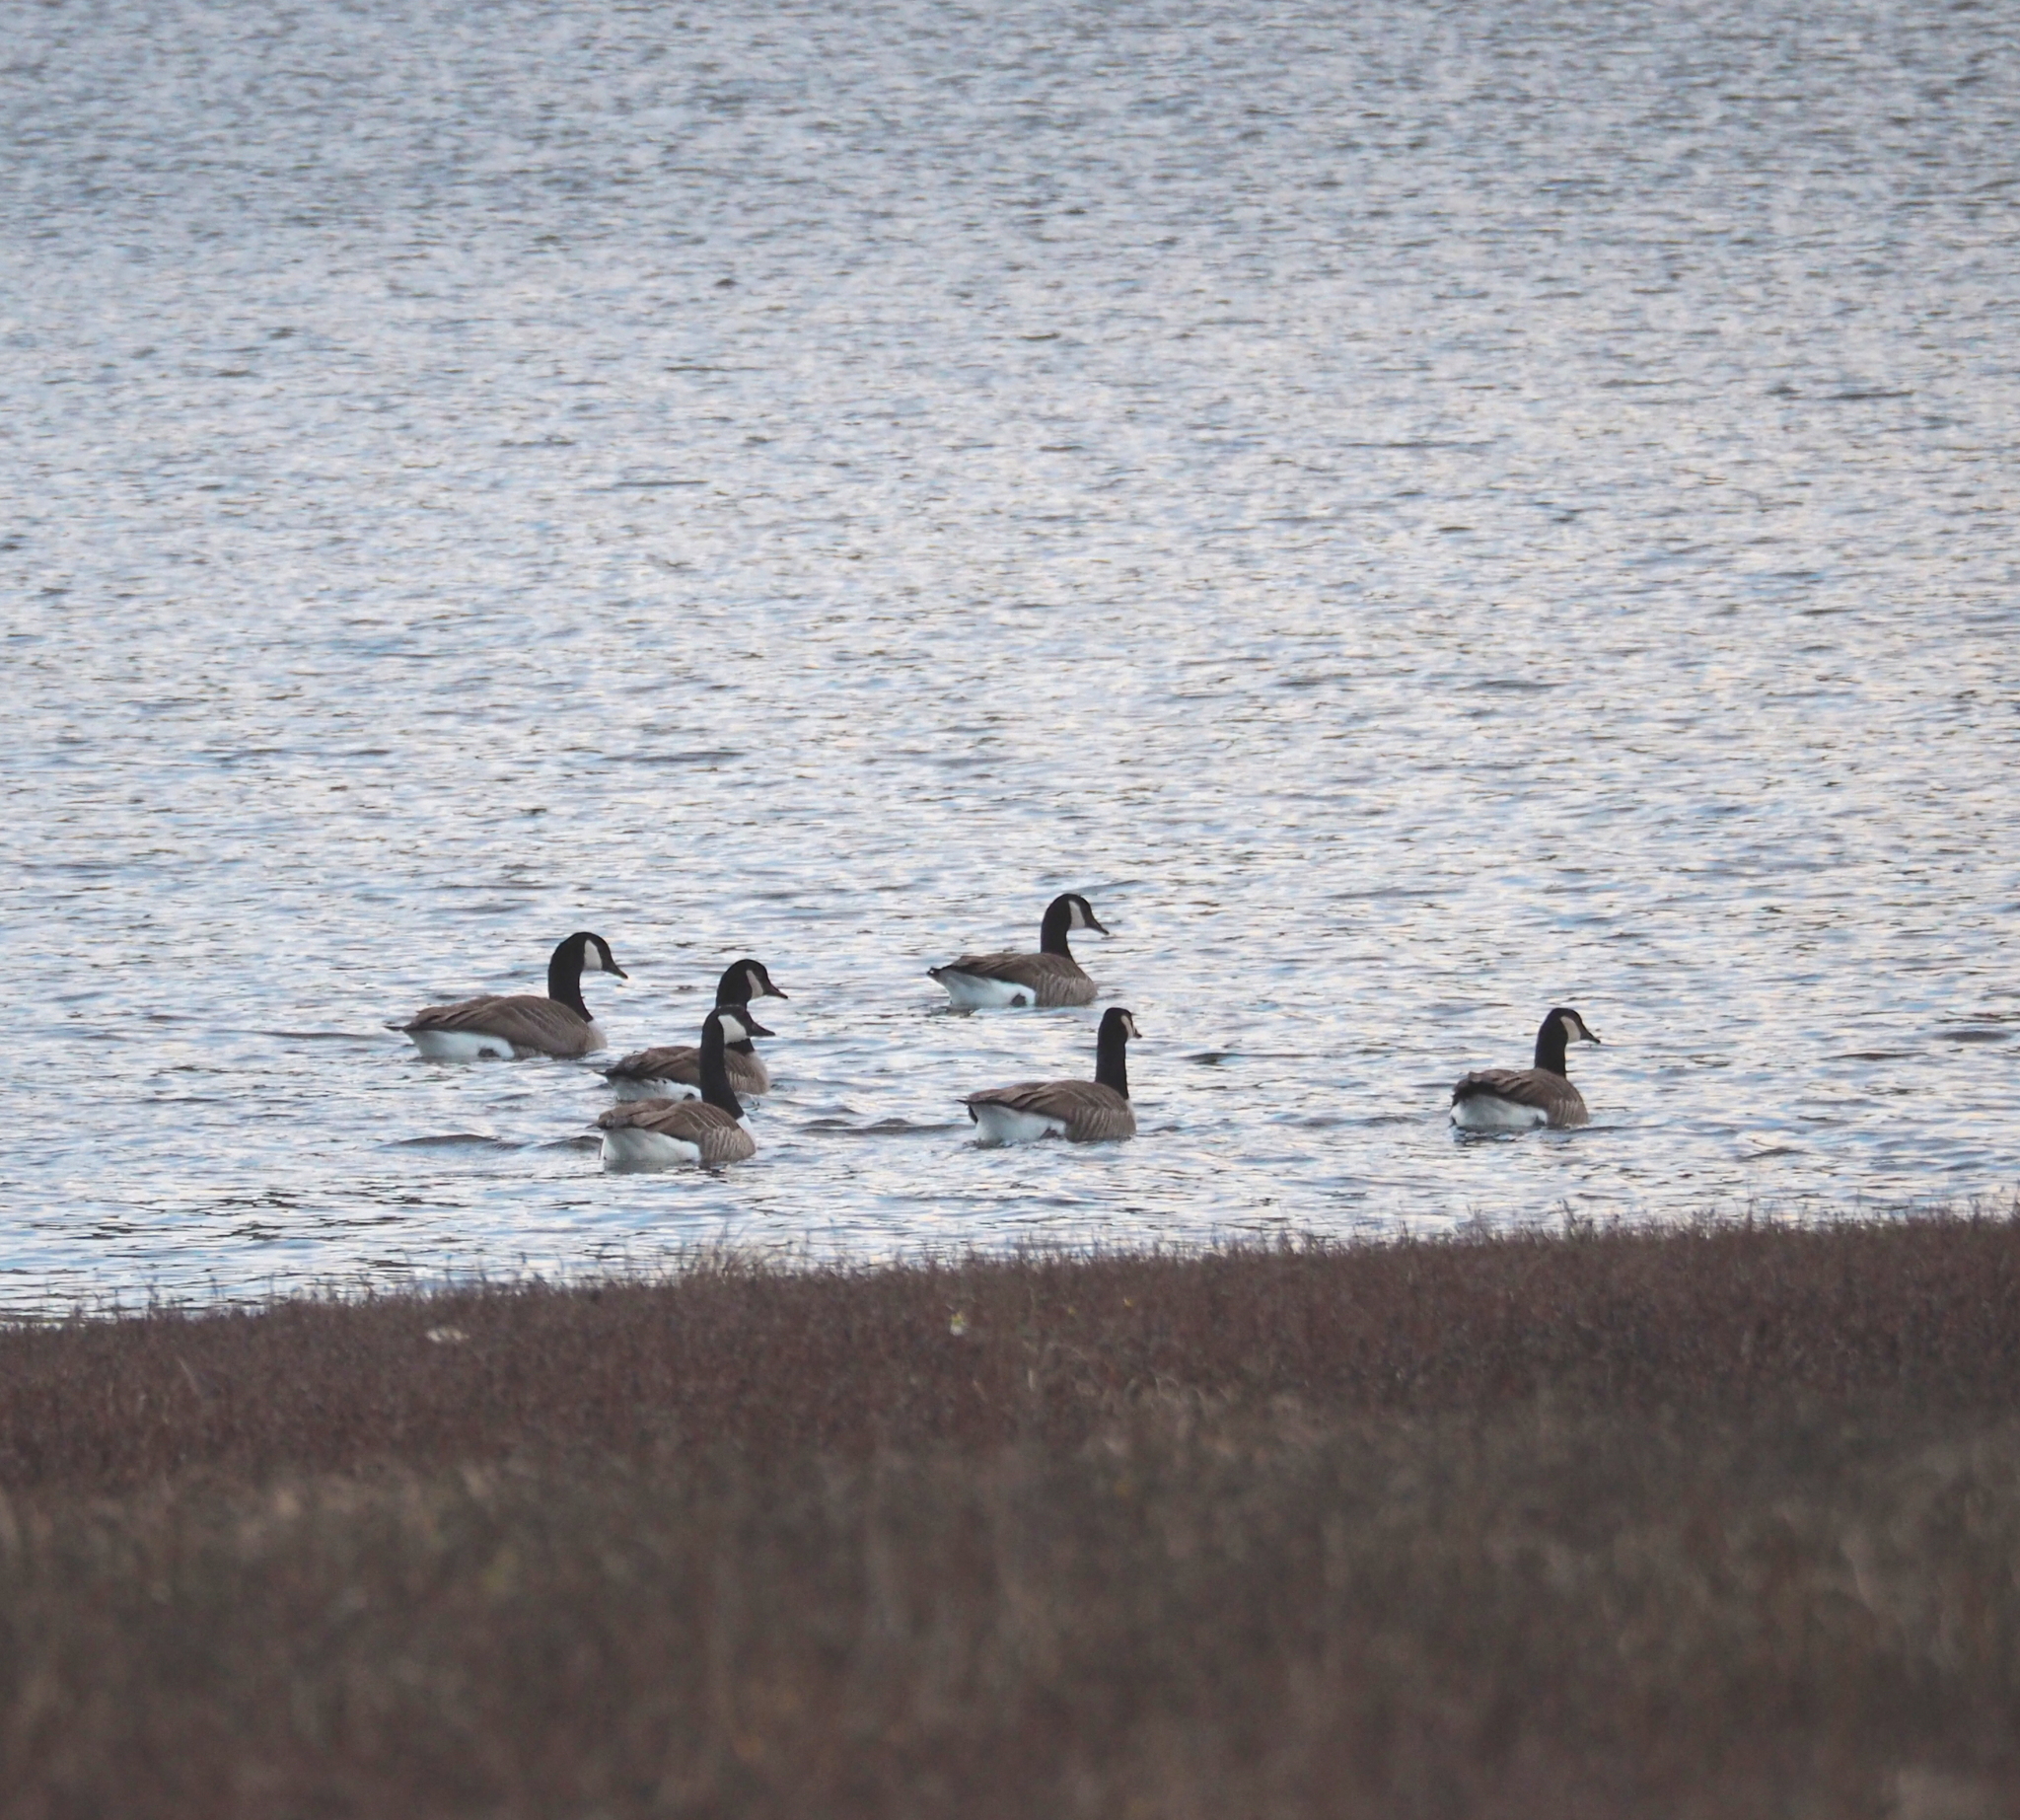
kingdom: Animalia
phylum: Chordata
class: Aves
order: Anseriformes
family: Anatidae
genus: Branta
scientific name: Branta canadensis
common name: Canada goose
